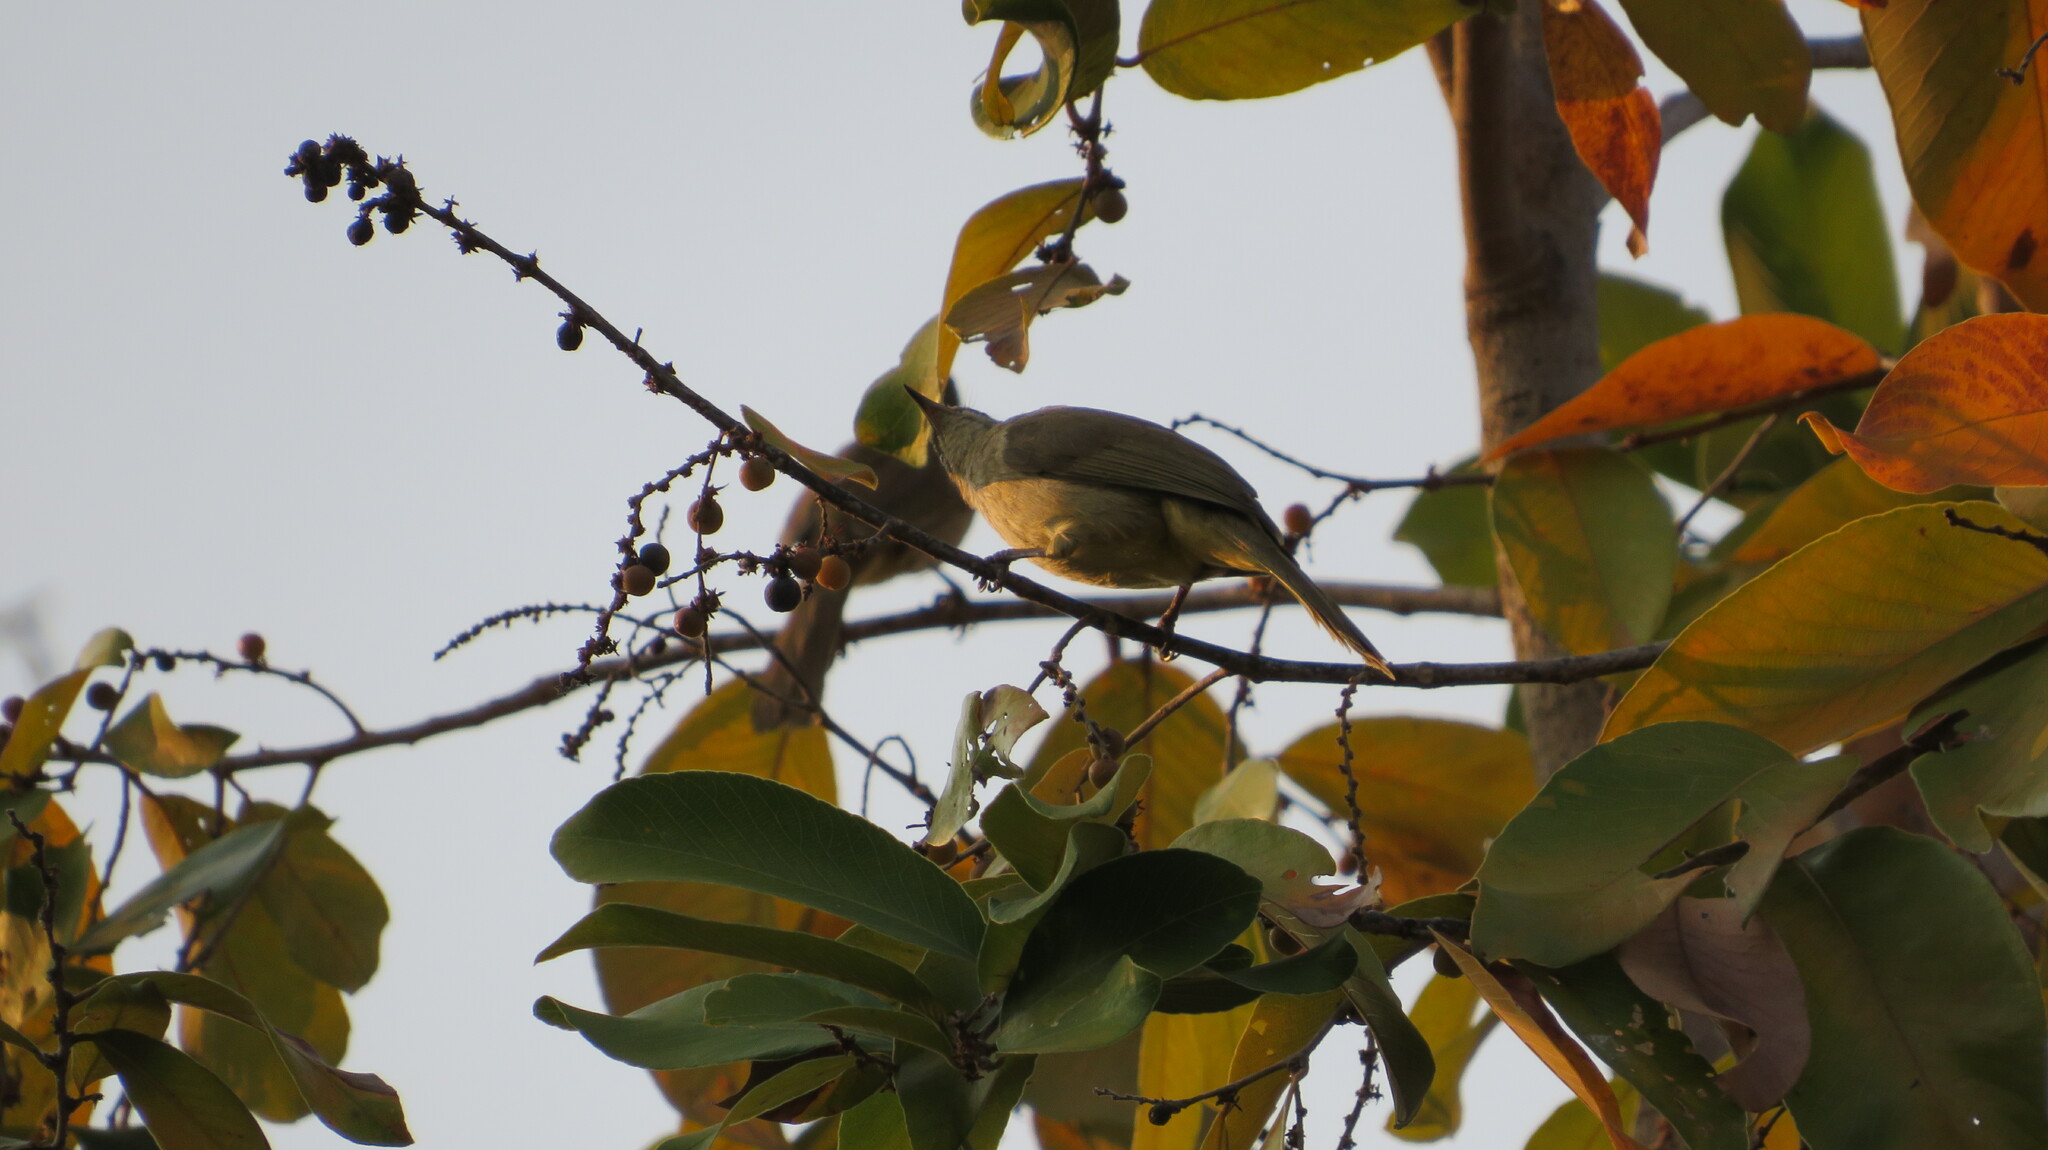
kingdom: Animalia
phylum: Chordata
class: Aves
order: Passeriformes
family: Pycnonotidae
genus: Pycnonotus
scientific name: Pycnonotus blanfordi
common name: Streak-eared bulbul
